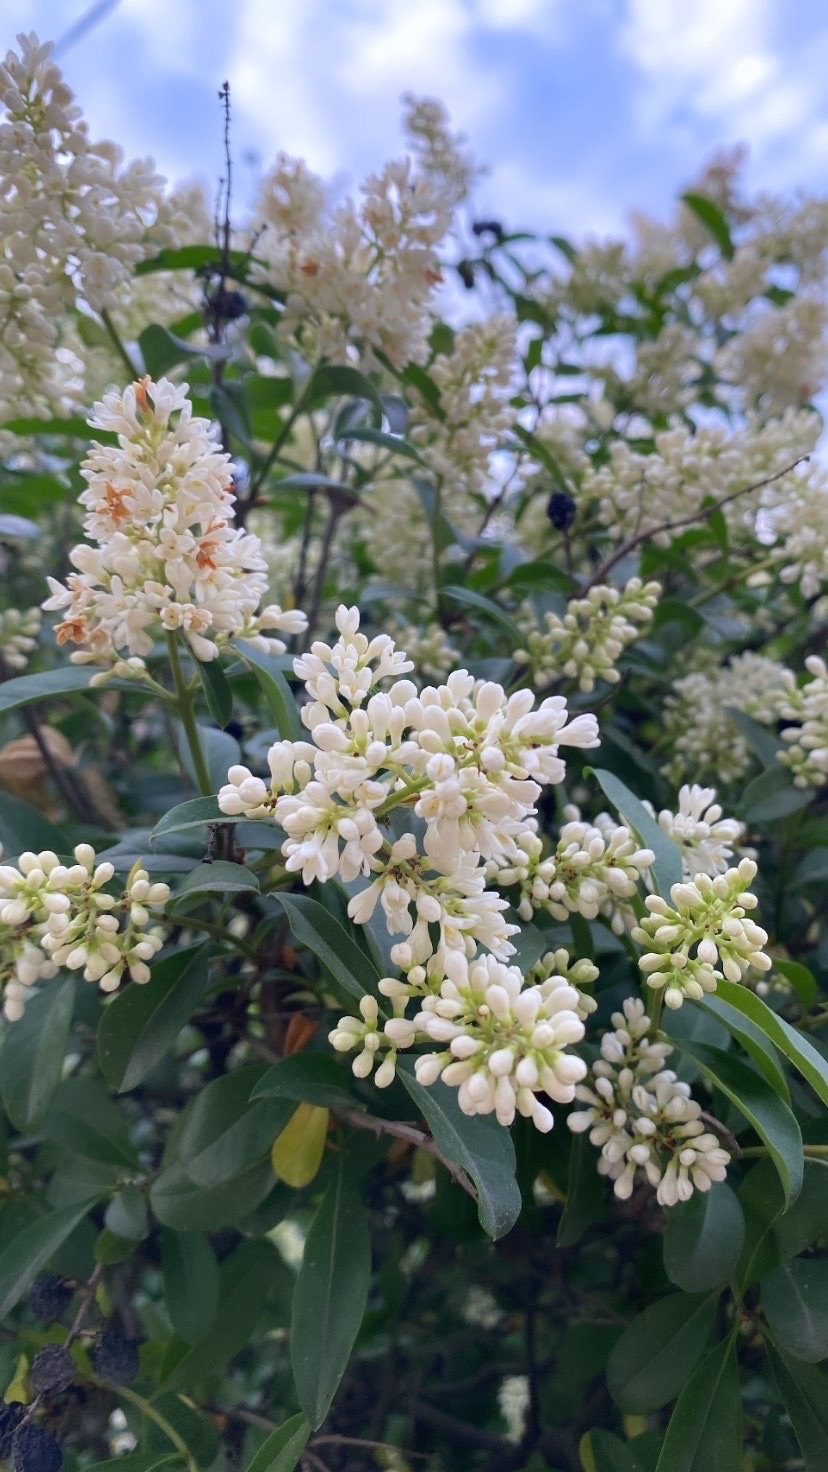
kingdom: Plantae
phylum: Tracheophyta
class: Magnoliopsida
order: Lamiales
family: Oleaceae
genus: Ligustrum
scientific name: Ligustrum vulgare
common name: Wild privet
